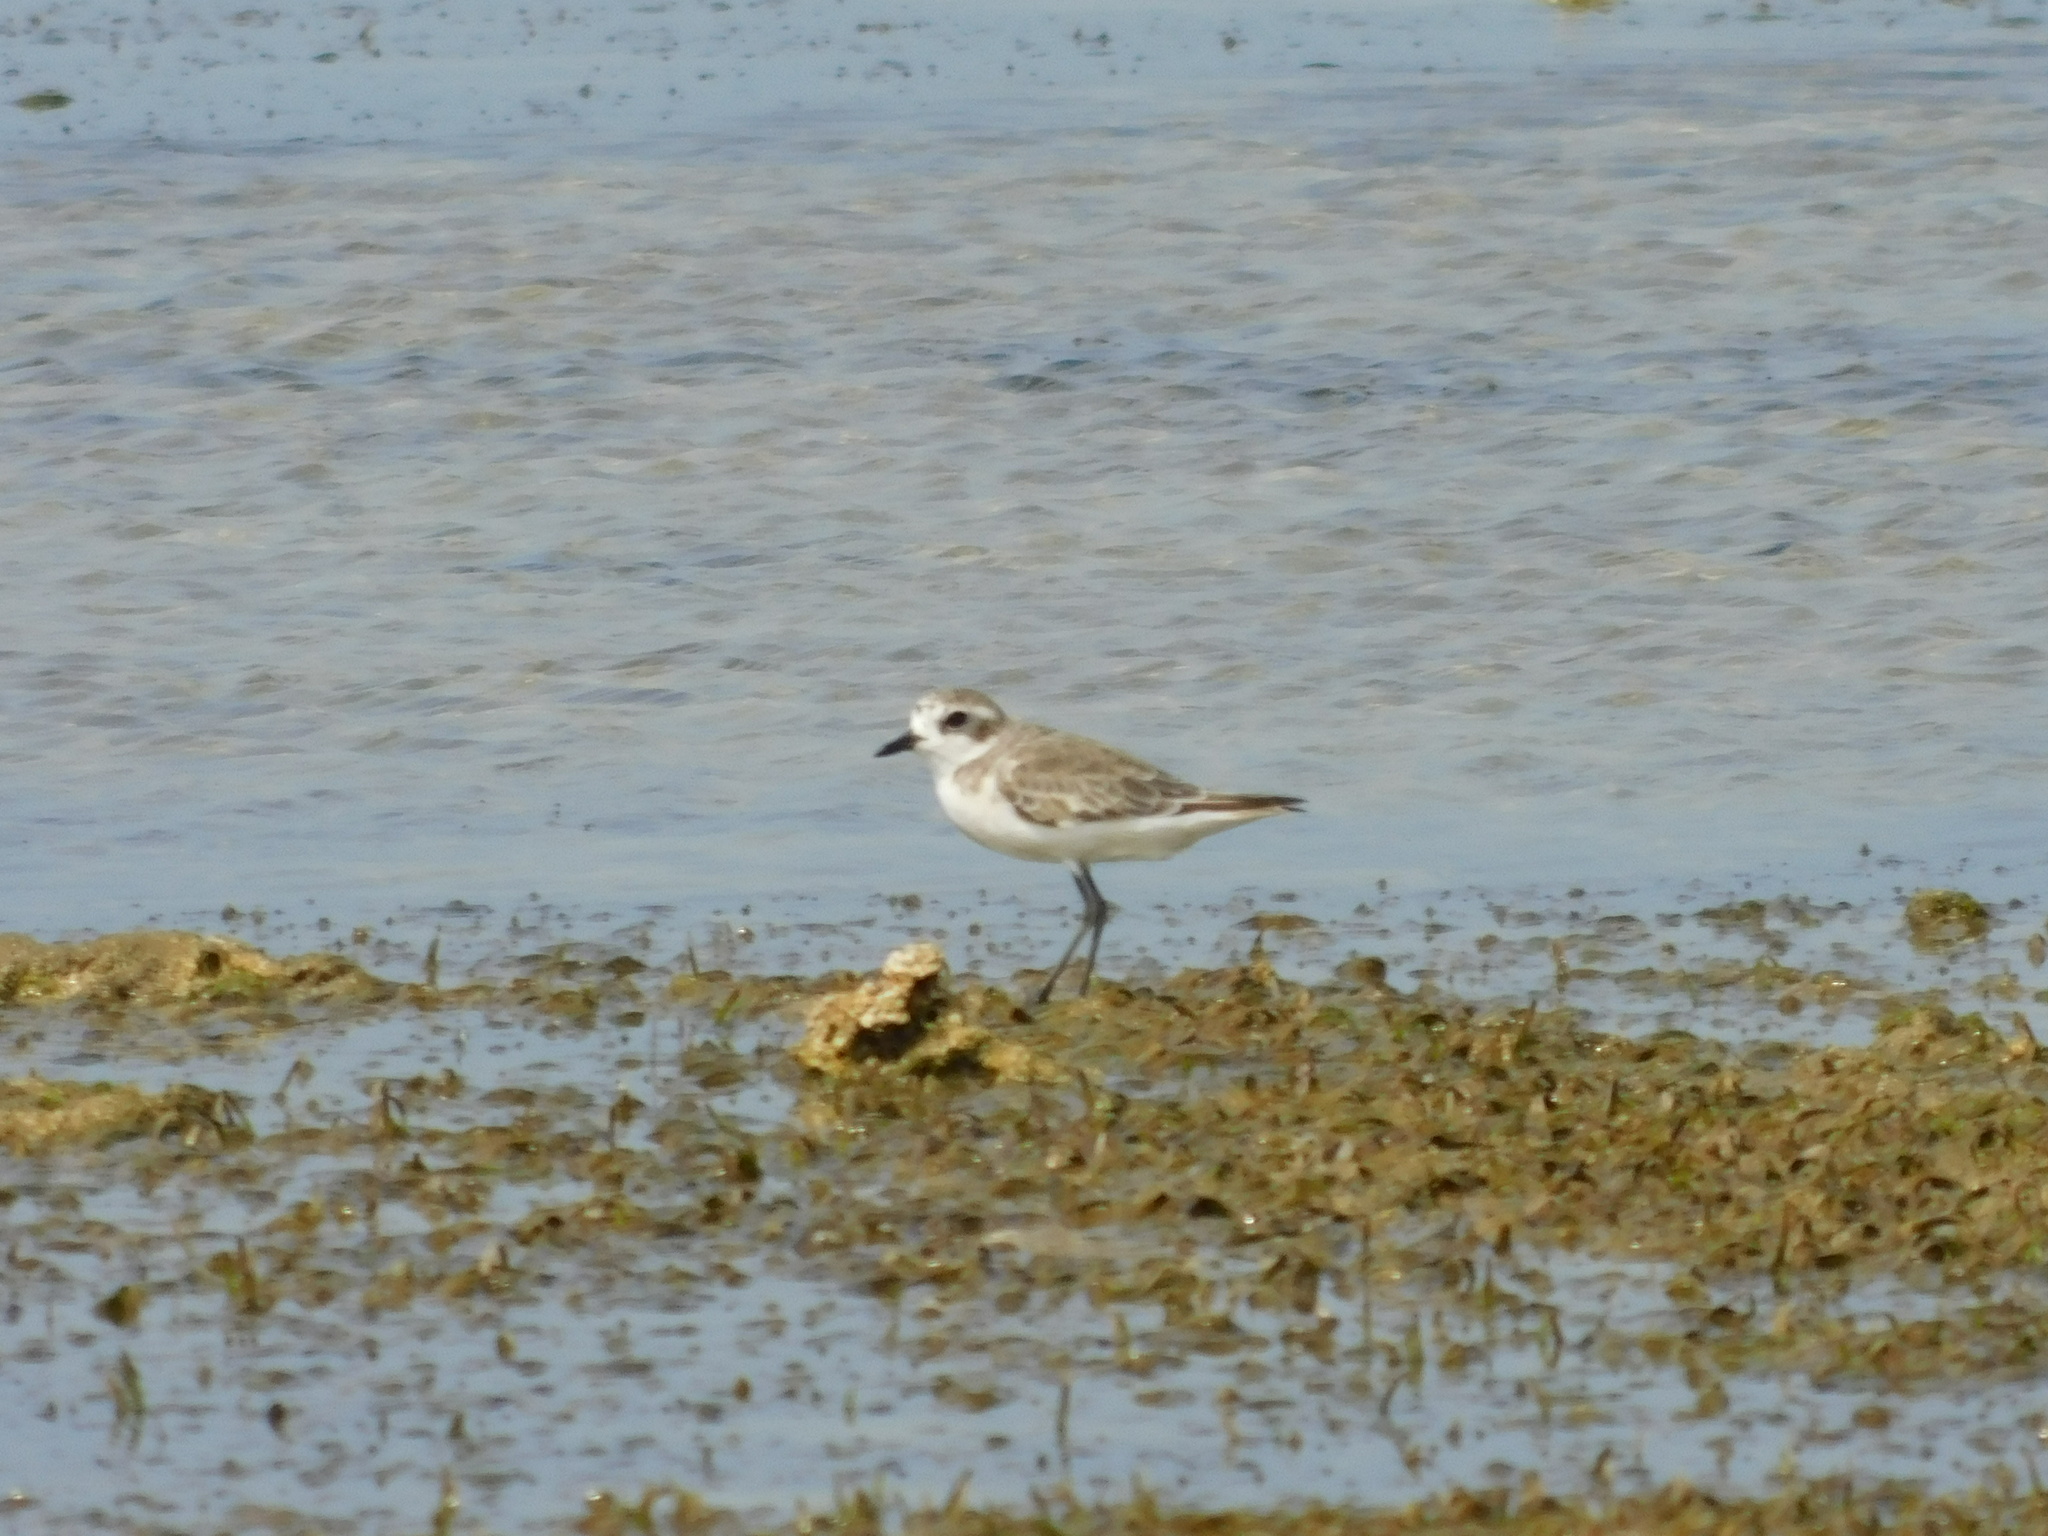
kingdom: Animalia
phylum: Chordata
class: Aves
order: Charadriiformes
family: Charadriidae
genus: Anarhynchus
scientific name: Anarhynchus
